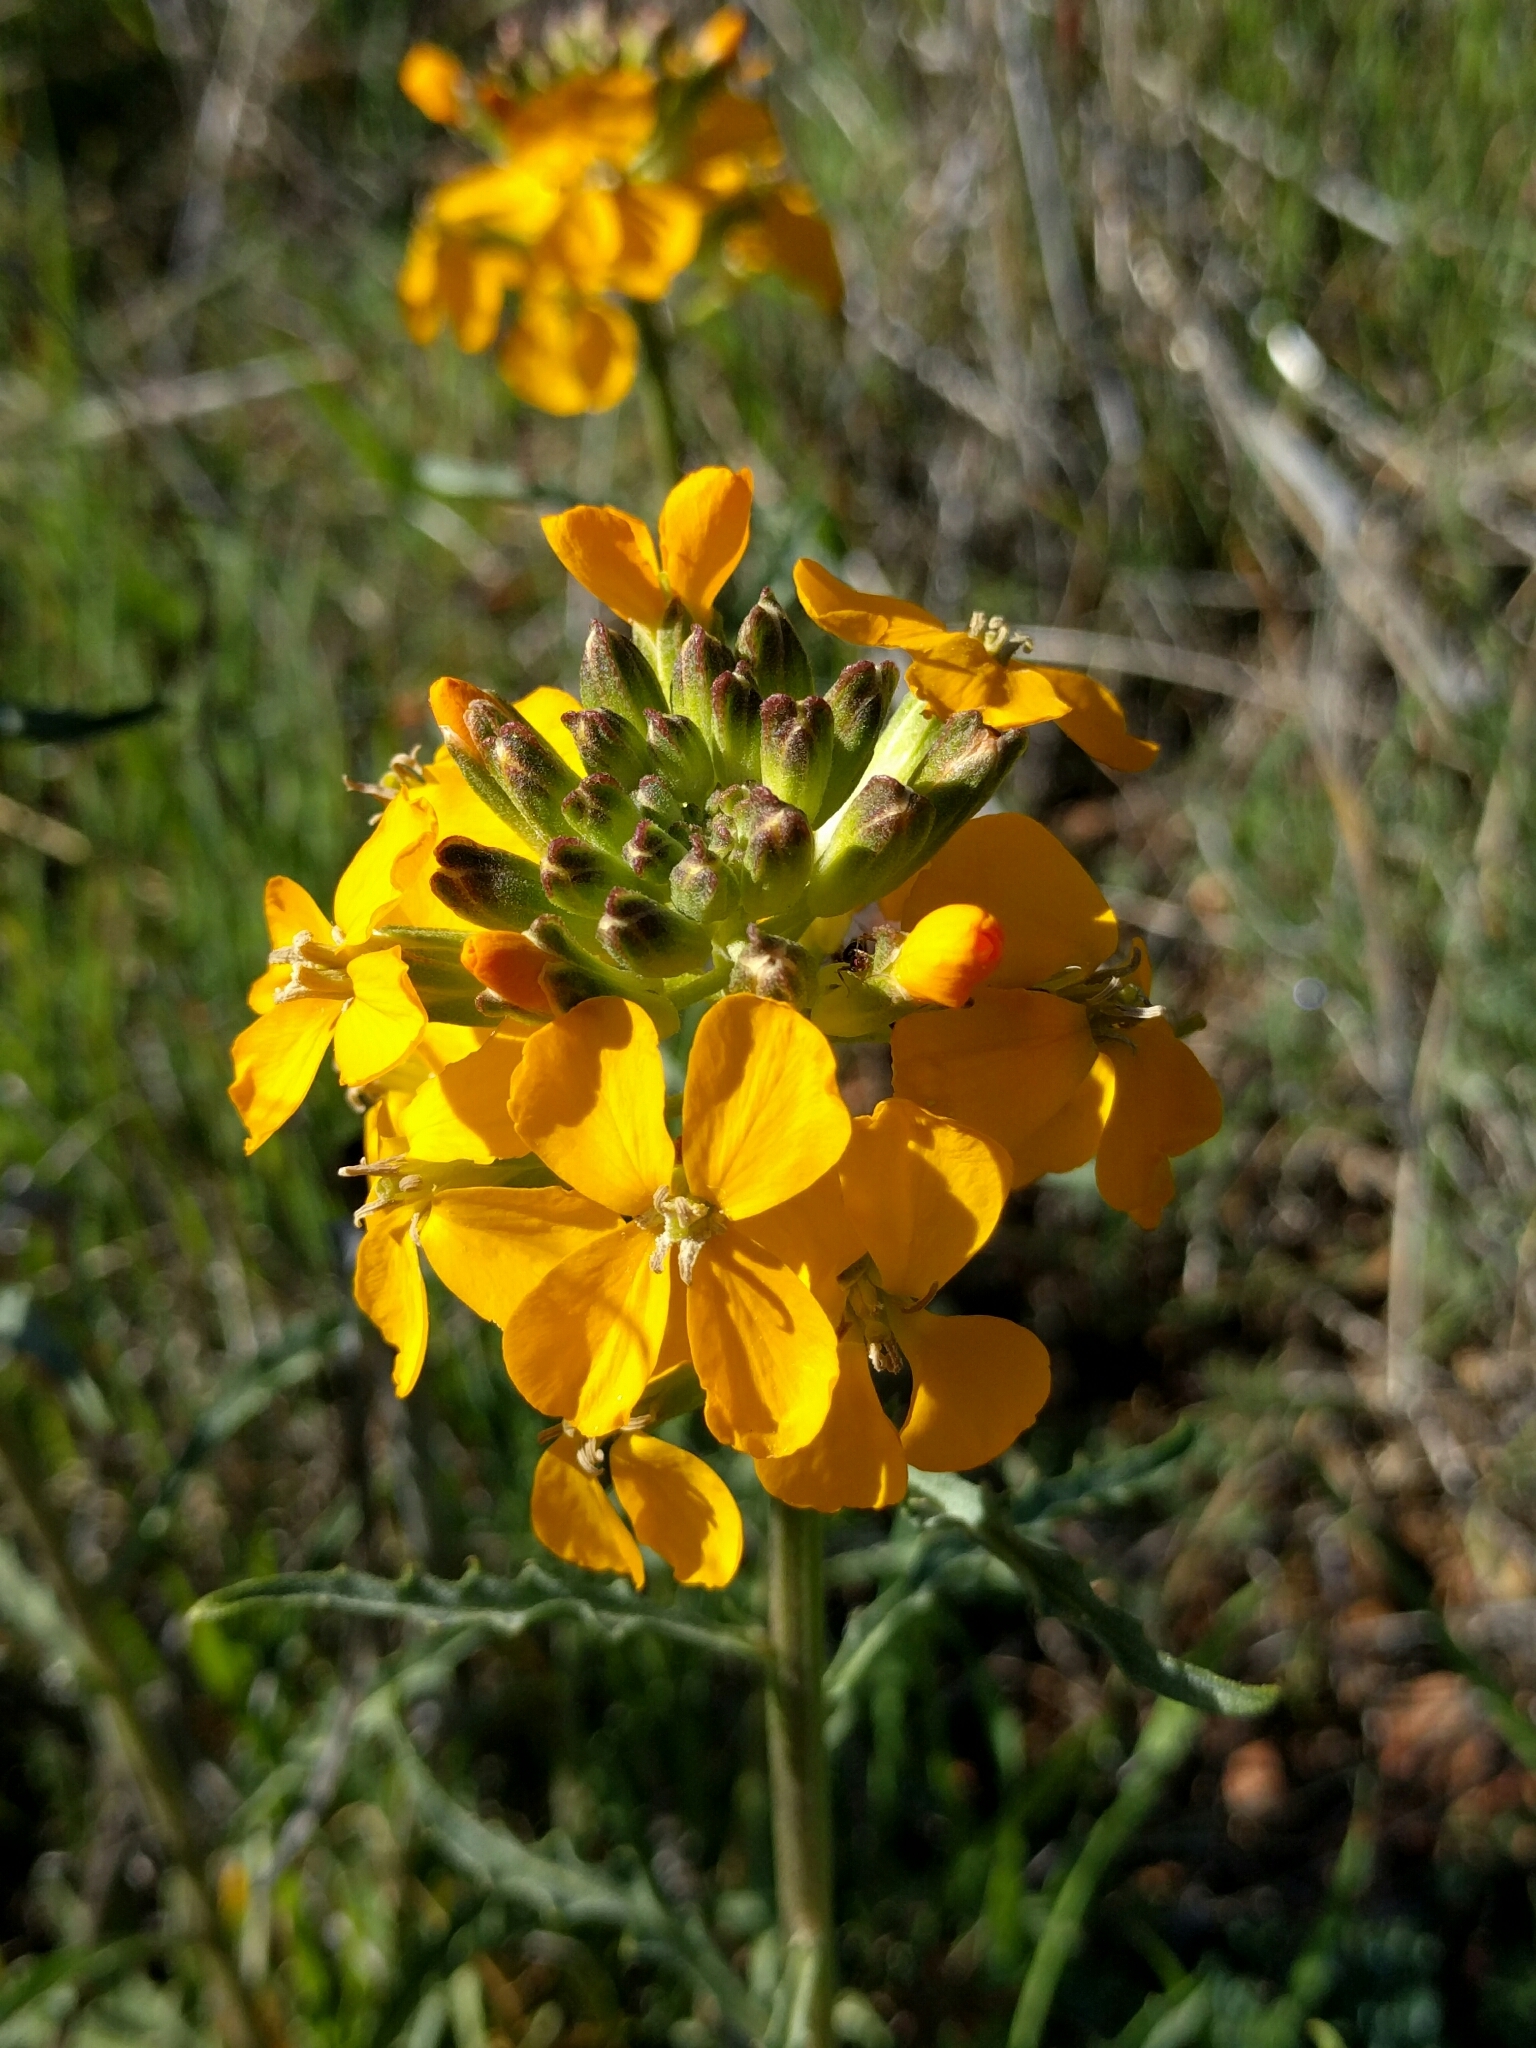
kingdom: Plantae
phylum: Tracheophyta
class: Magnoliopsida
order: Brassicales
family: Brassicaceae
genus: Erysimum
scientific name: Erysimum capitatum
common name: Western wallflower
